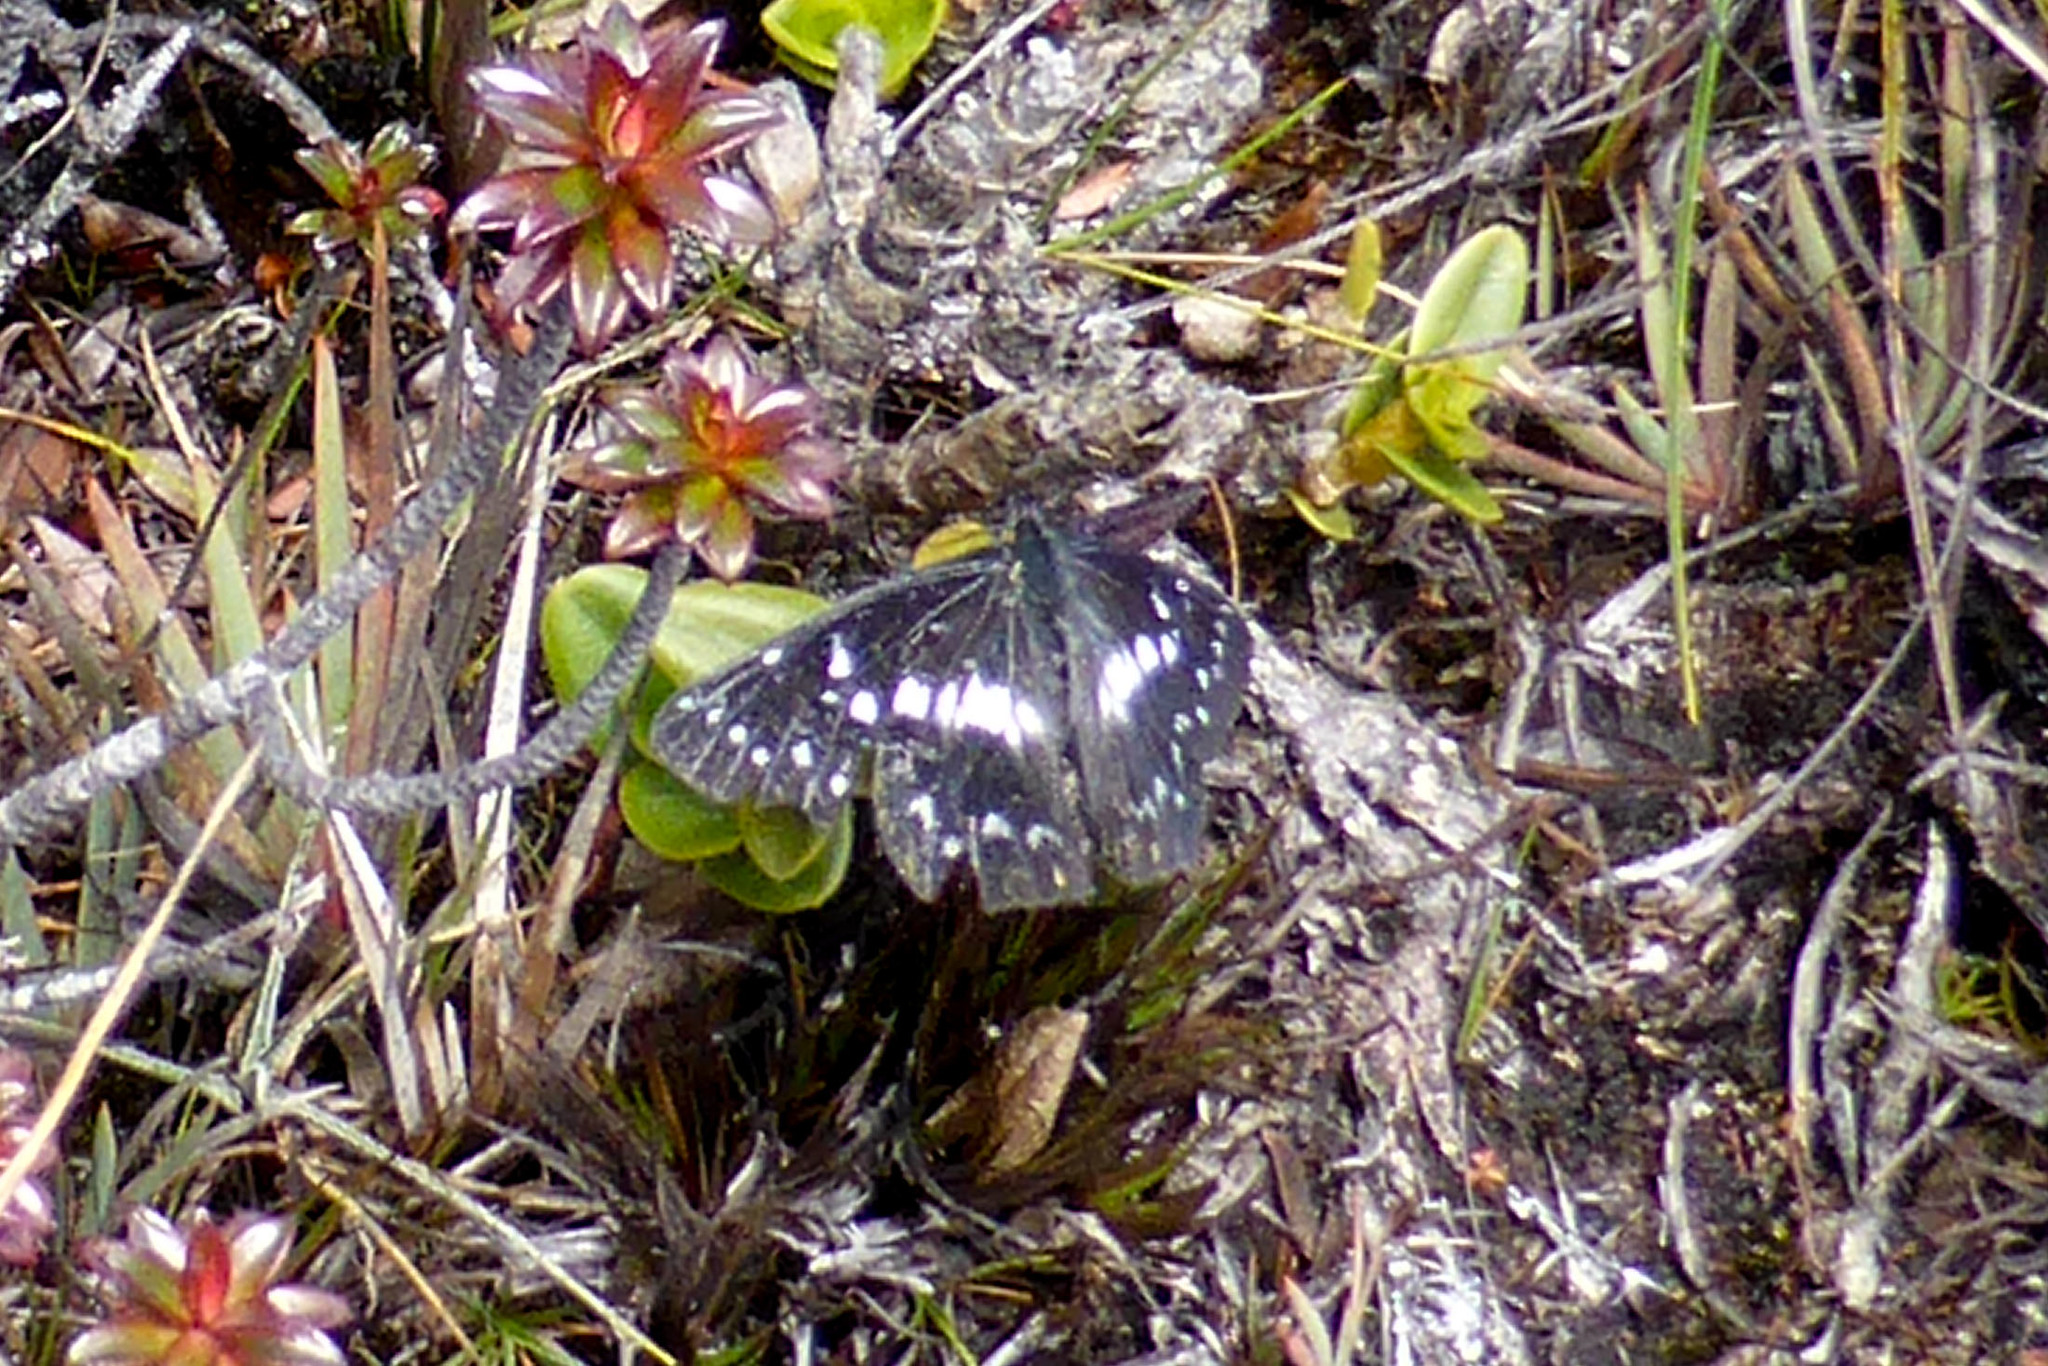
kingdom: Animalia
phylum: Arthropoda
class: Insecta
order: Lepidoptera
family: Pieridae
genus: Catasticta
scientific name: Catasticta duida
